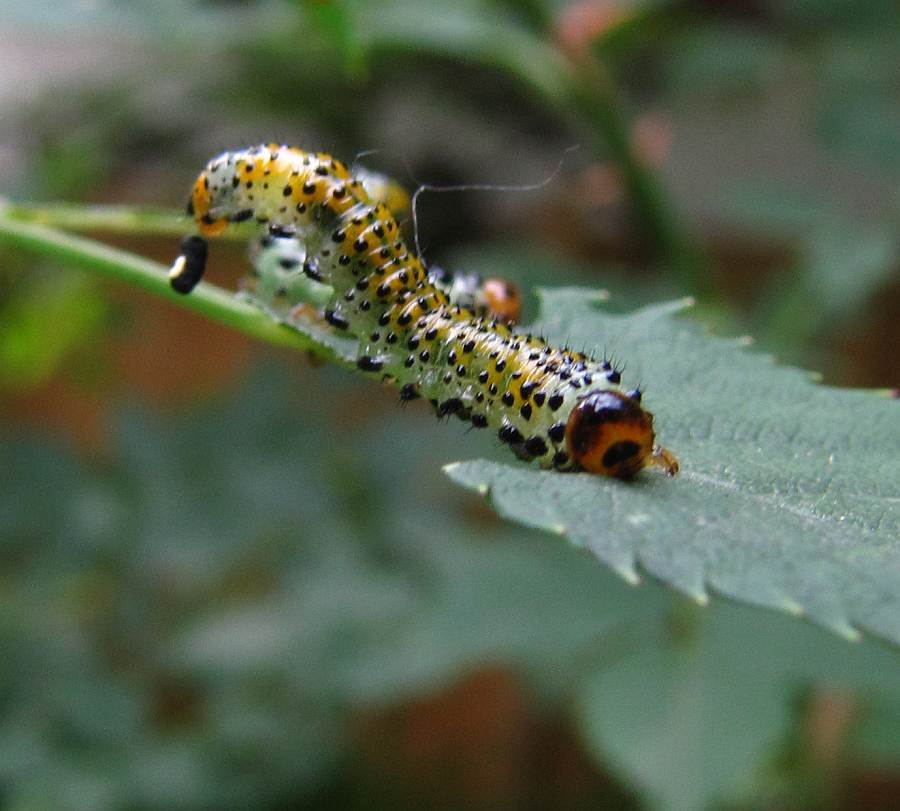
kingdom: Animalia
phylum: Arthropoda
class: Insecta
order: Hymenoptera
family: Argidae
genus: Arge
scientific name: Arge ochropus
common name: Argid sawfly
